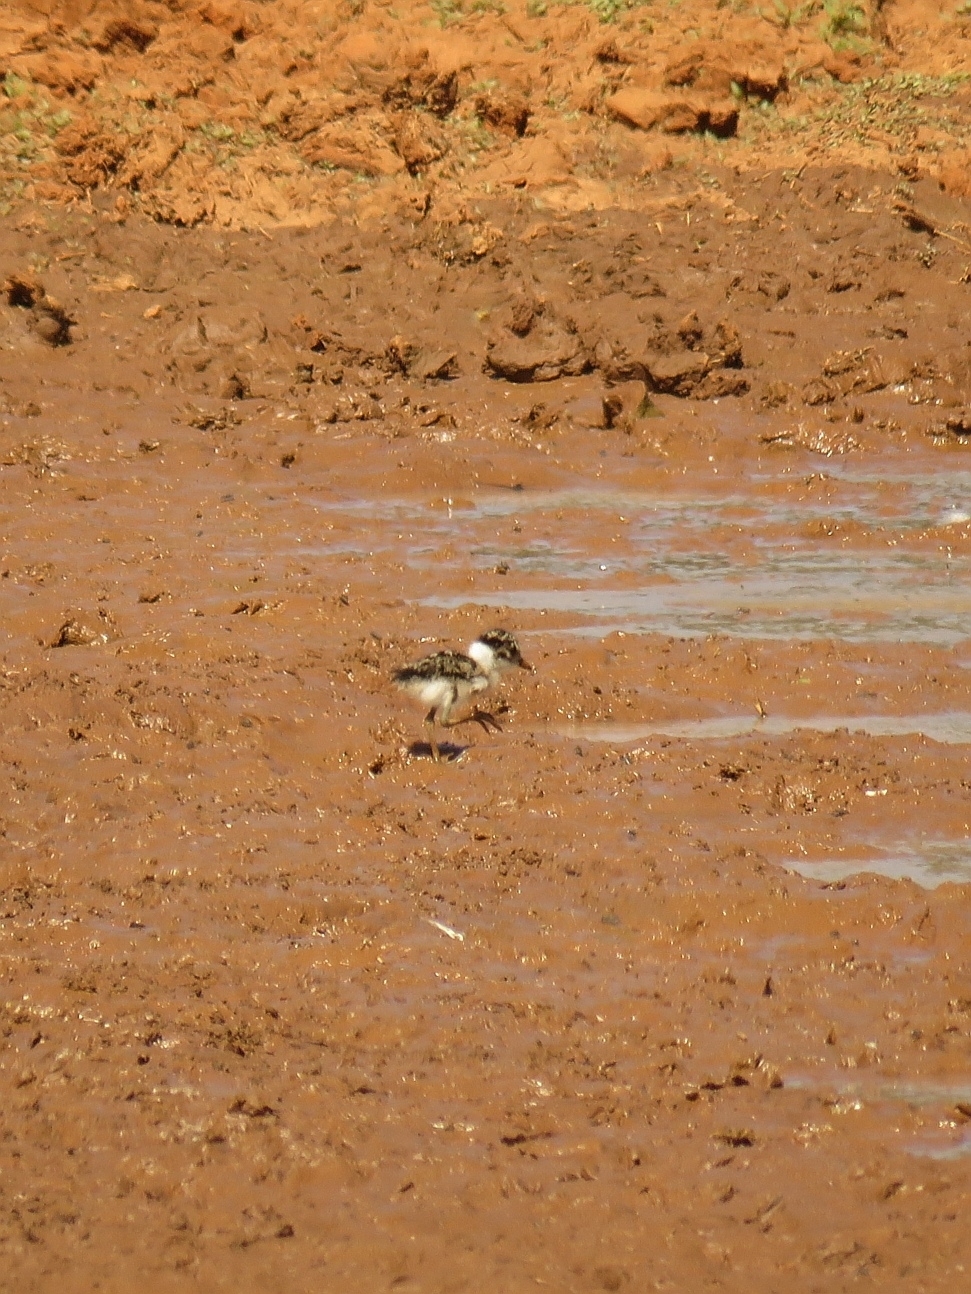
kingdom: Animalia
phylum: Chordata
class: Aves
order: Charadriiformes
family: Charadriidae
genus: Vanellus
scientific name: Vanellus armatus
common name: Blacksmith lapwing
